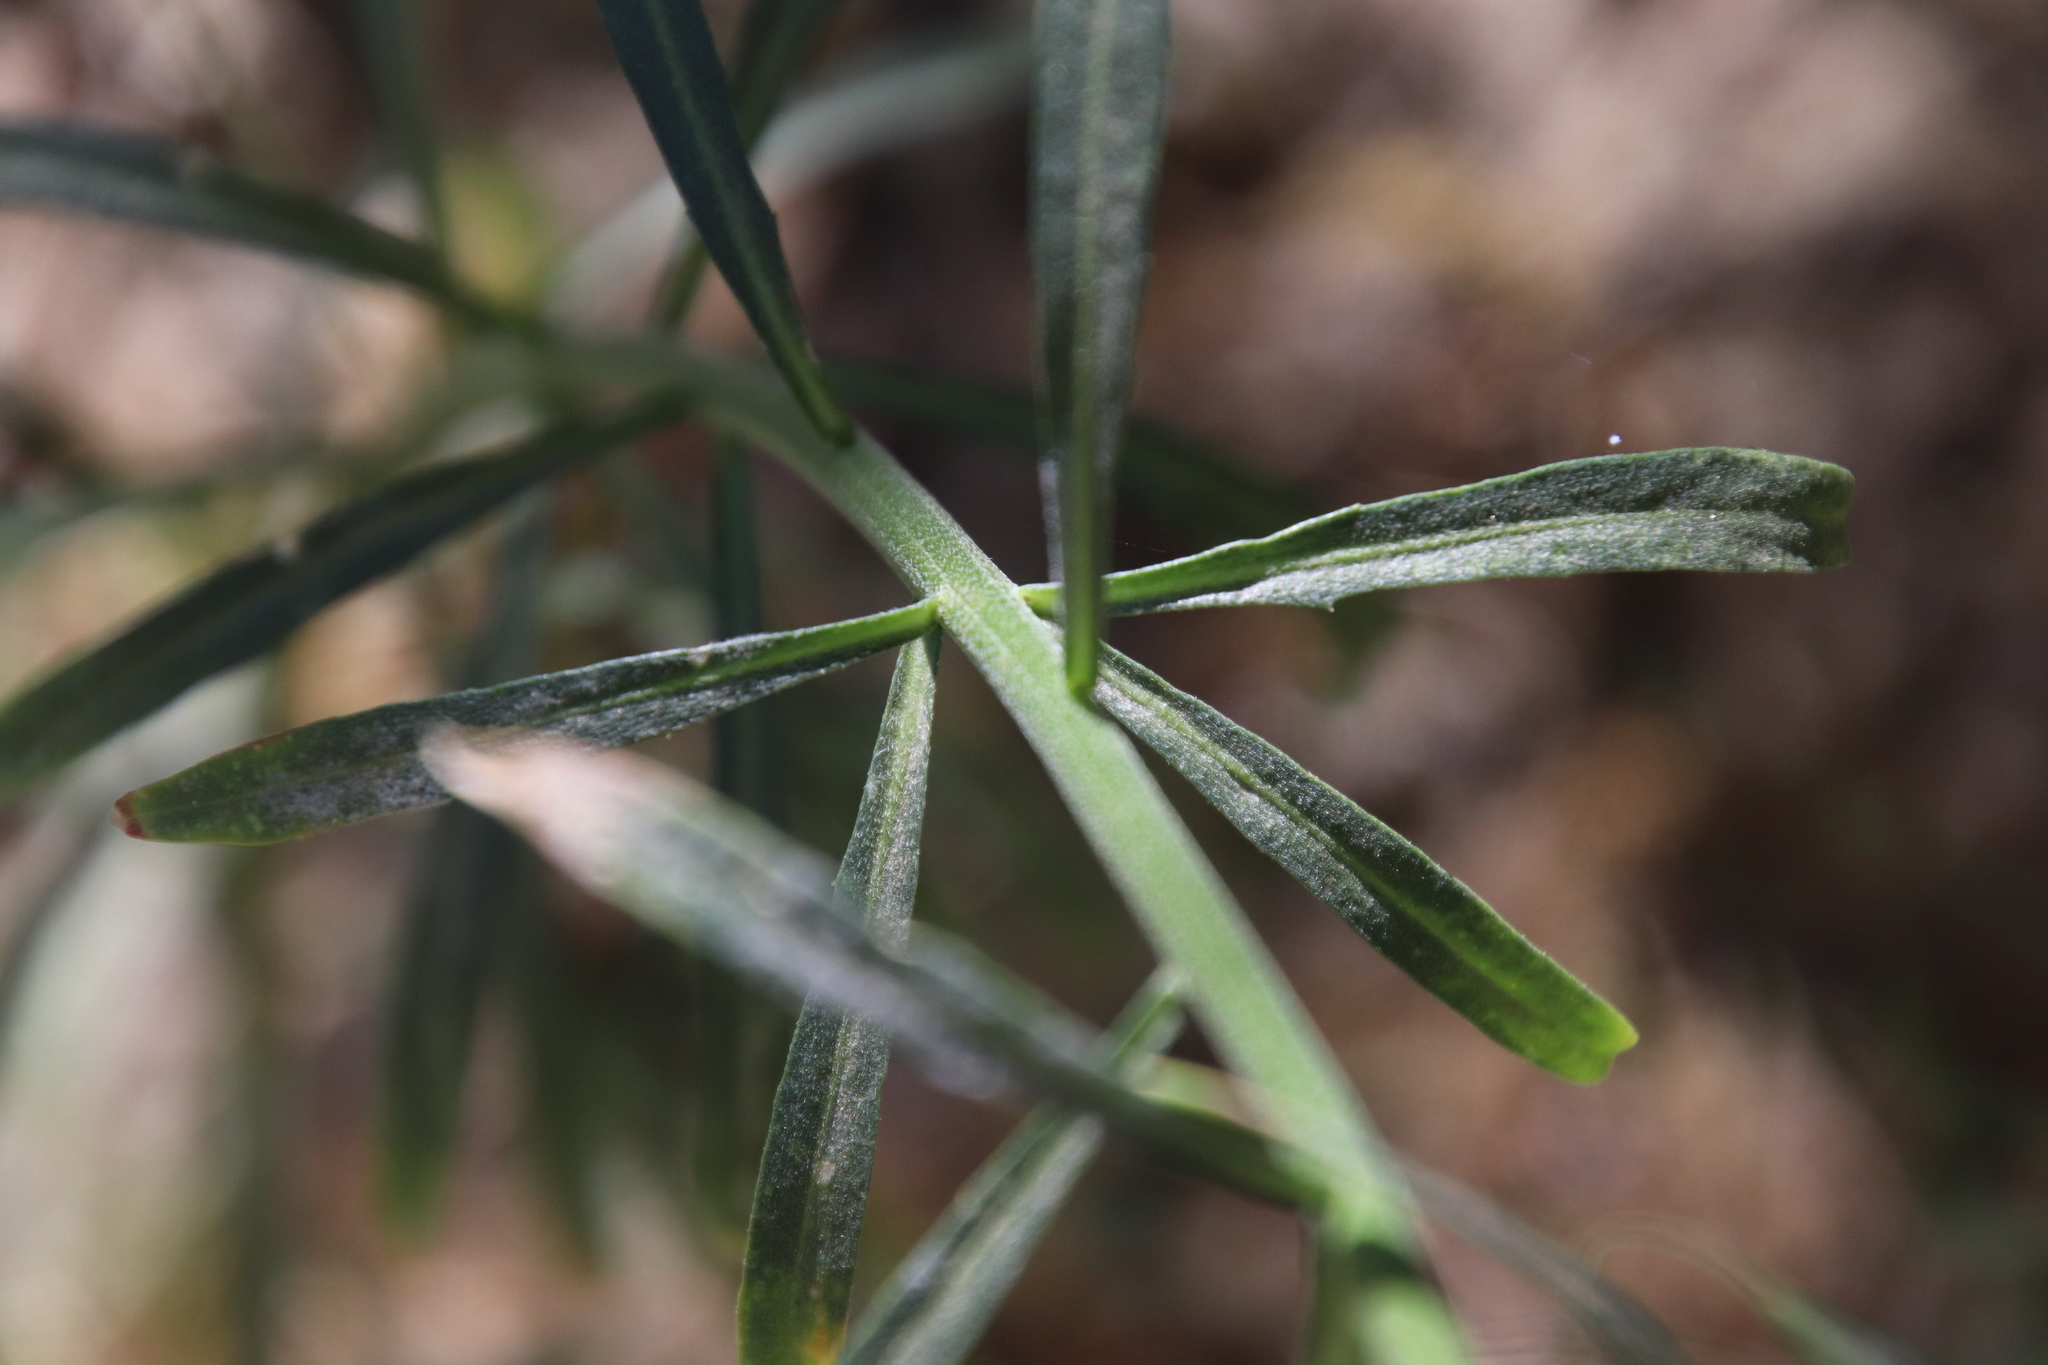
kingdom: Plantae
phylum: Tracheophyta
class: Magnoliopsida
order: Brassicales
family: Brassicaceae
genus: Erysimum
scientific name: Erysimum capitatum
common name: Western wallflower
